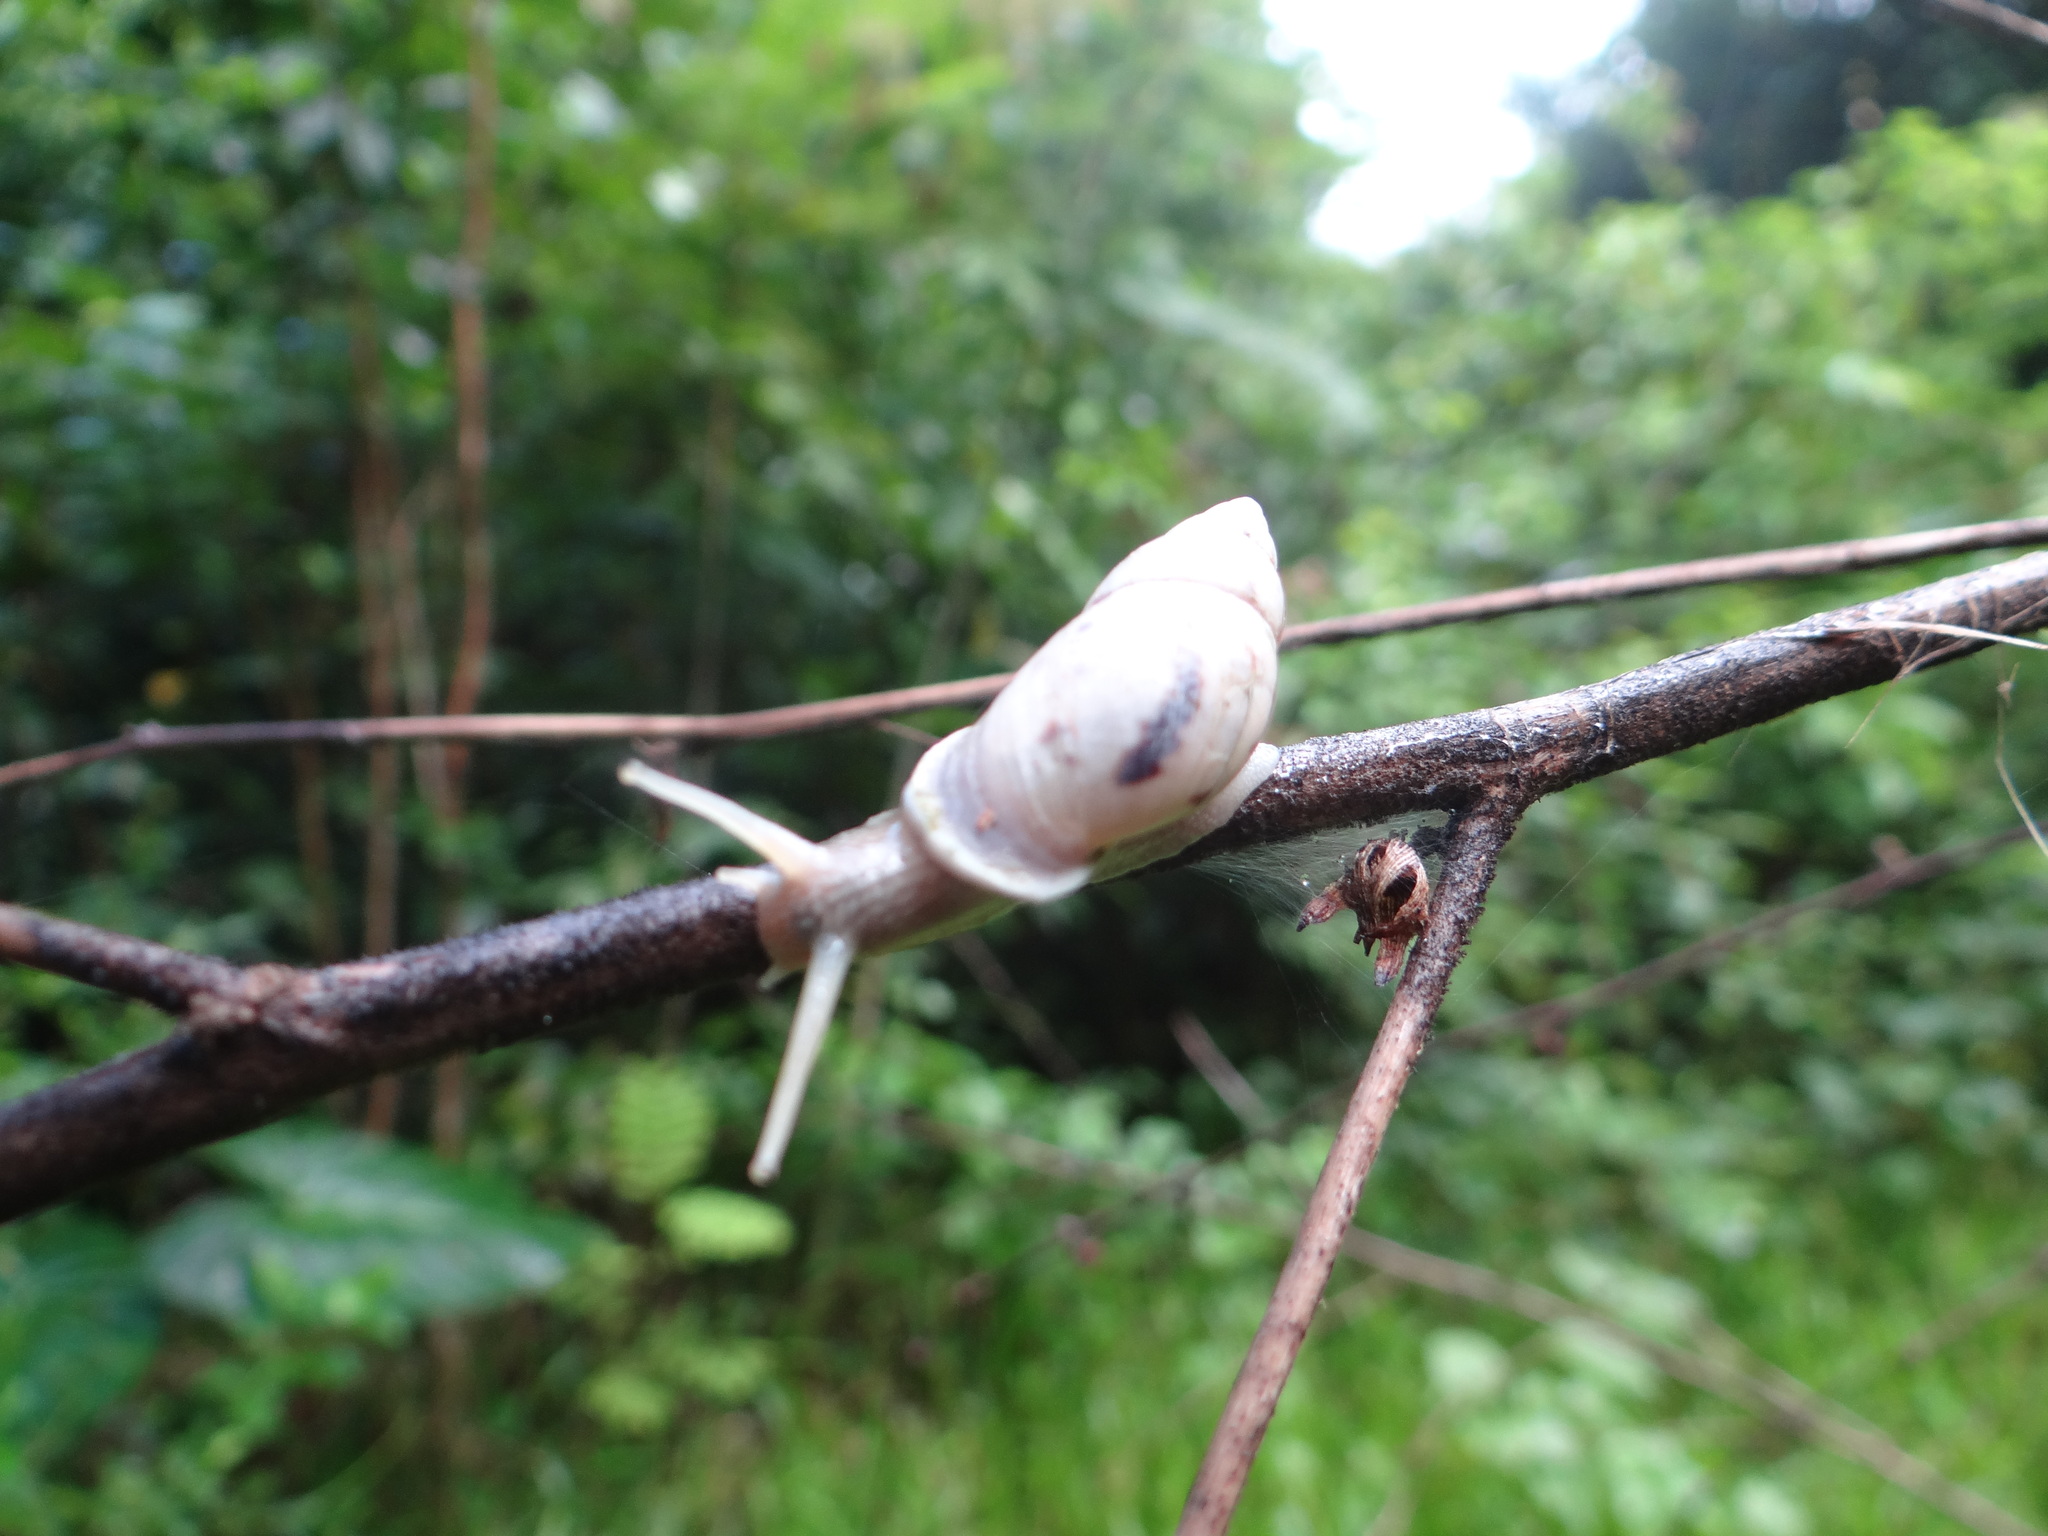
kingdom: Animalia
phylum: Mollusca
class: Gastropoda
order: Stylommatophora
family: Bulimulidae
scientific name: Bulimulidae
